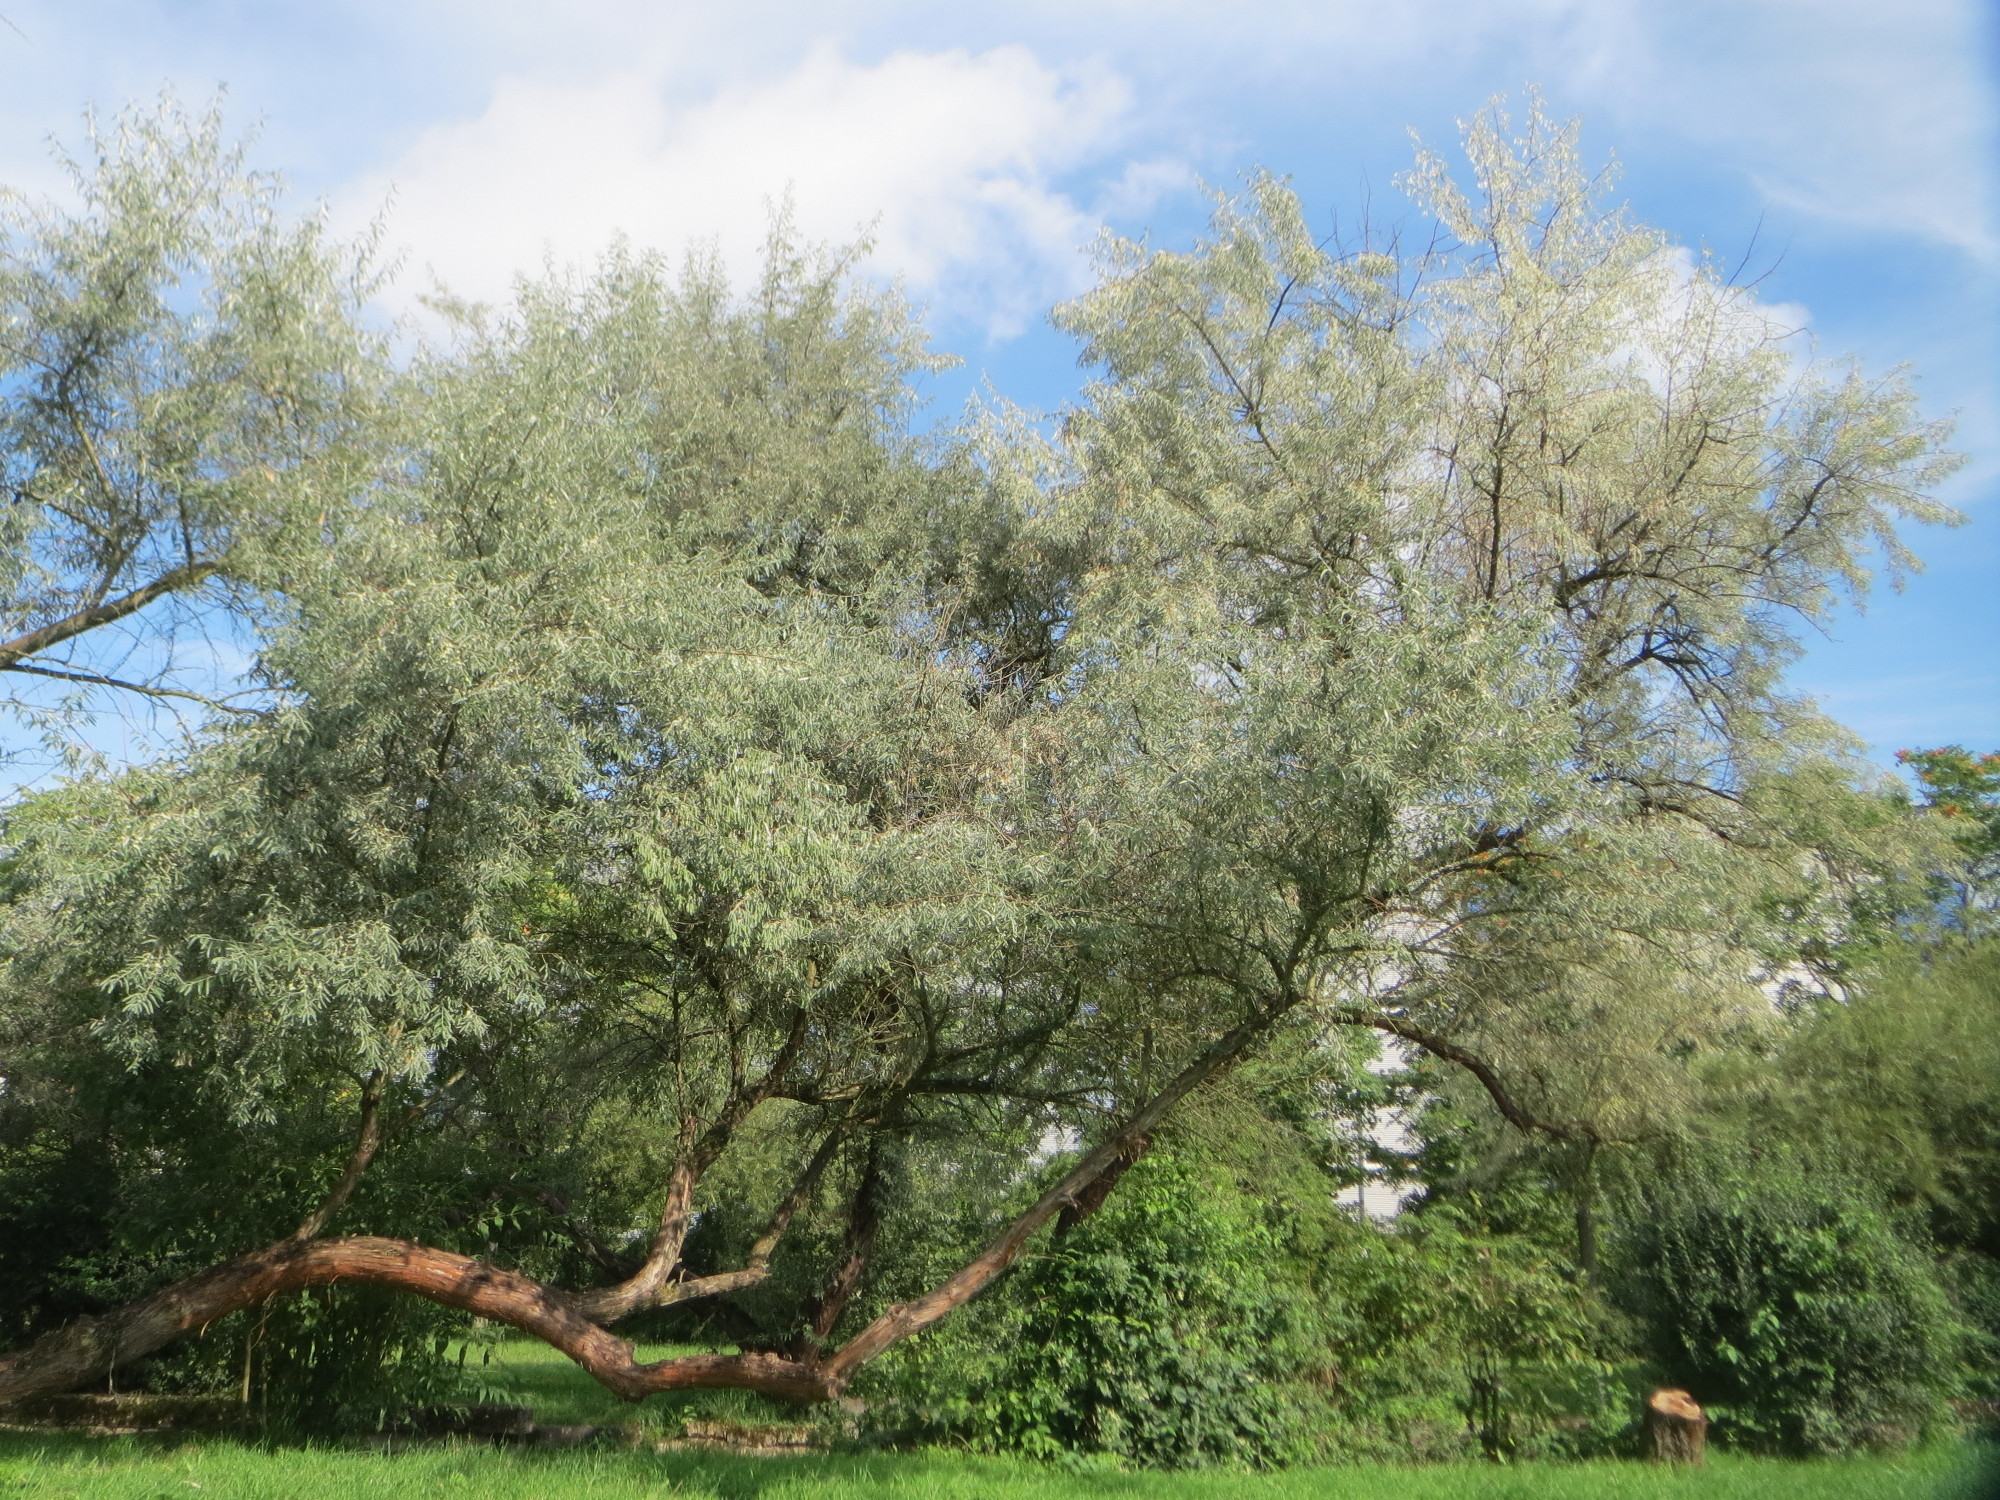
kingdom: Plantae
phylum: Tracheophyta
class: Magnoliopsida
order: Rosales
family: Elaeagnaceae
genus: Elaeagnus
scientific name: Elaeagnus angustifolia
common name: Russian olive
